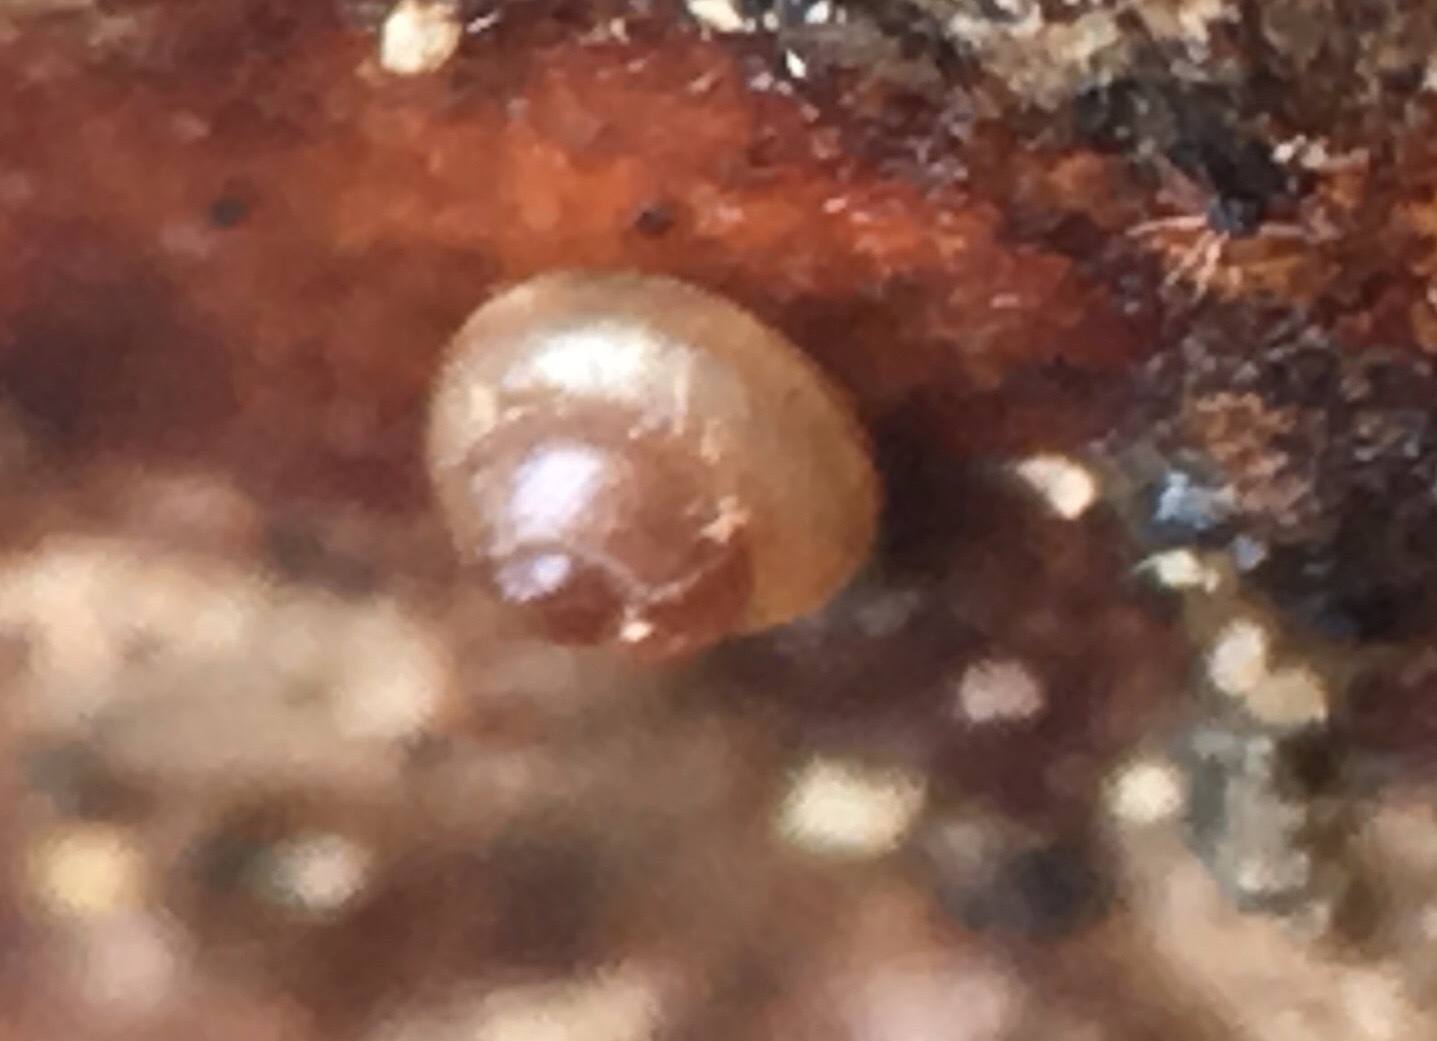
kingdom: Animalia
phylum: Mollusca
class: Gastropoda
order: Stylommatophora
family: Vertiginidae
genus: Vertigo
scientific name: Vertigo clementina
